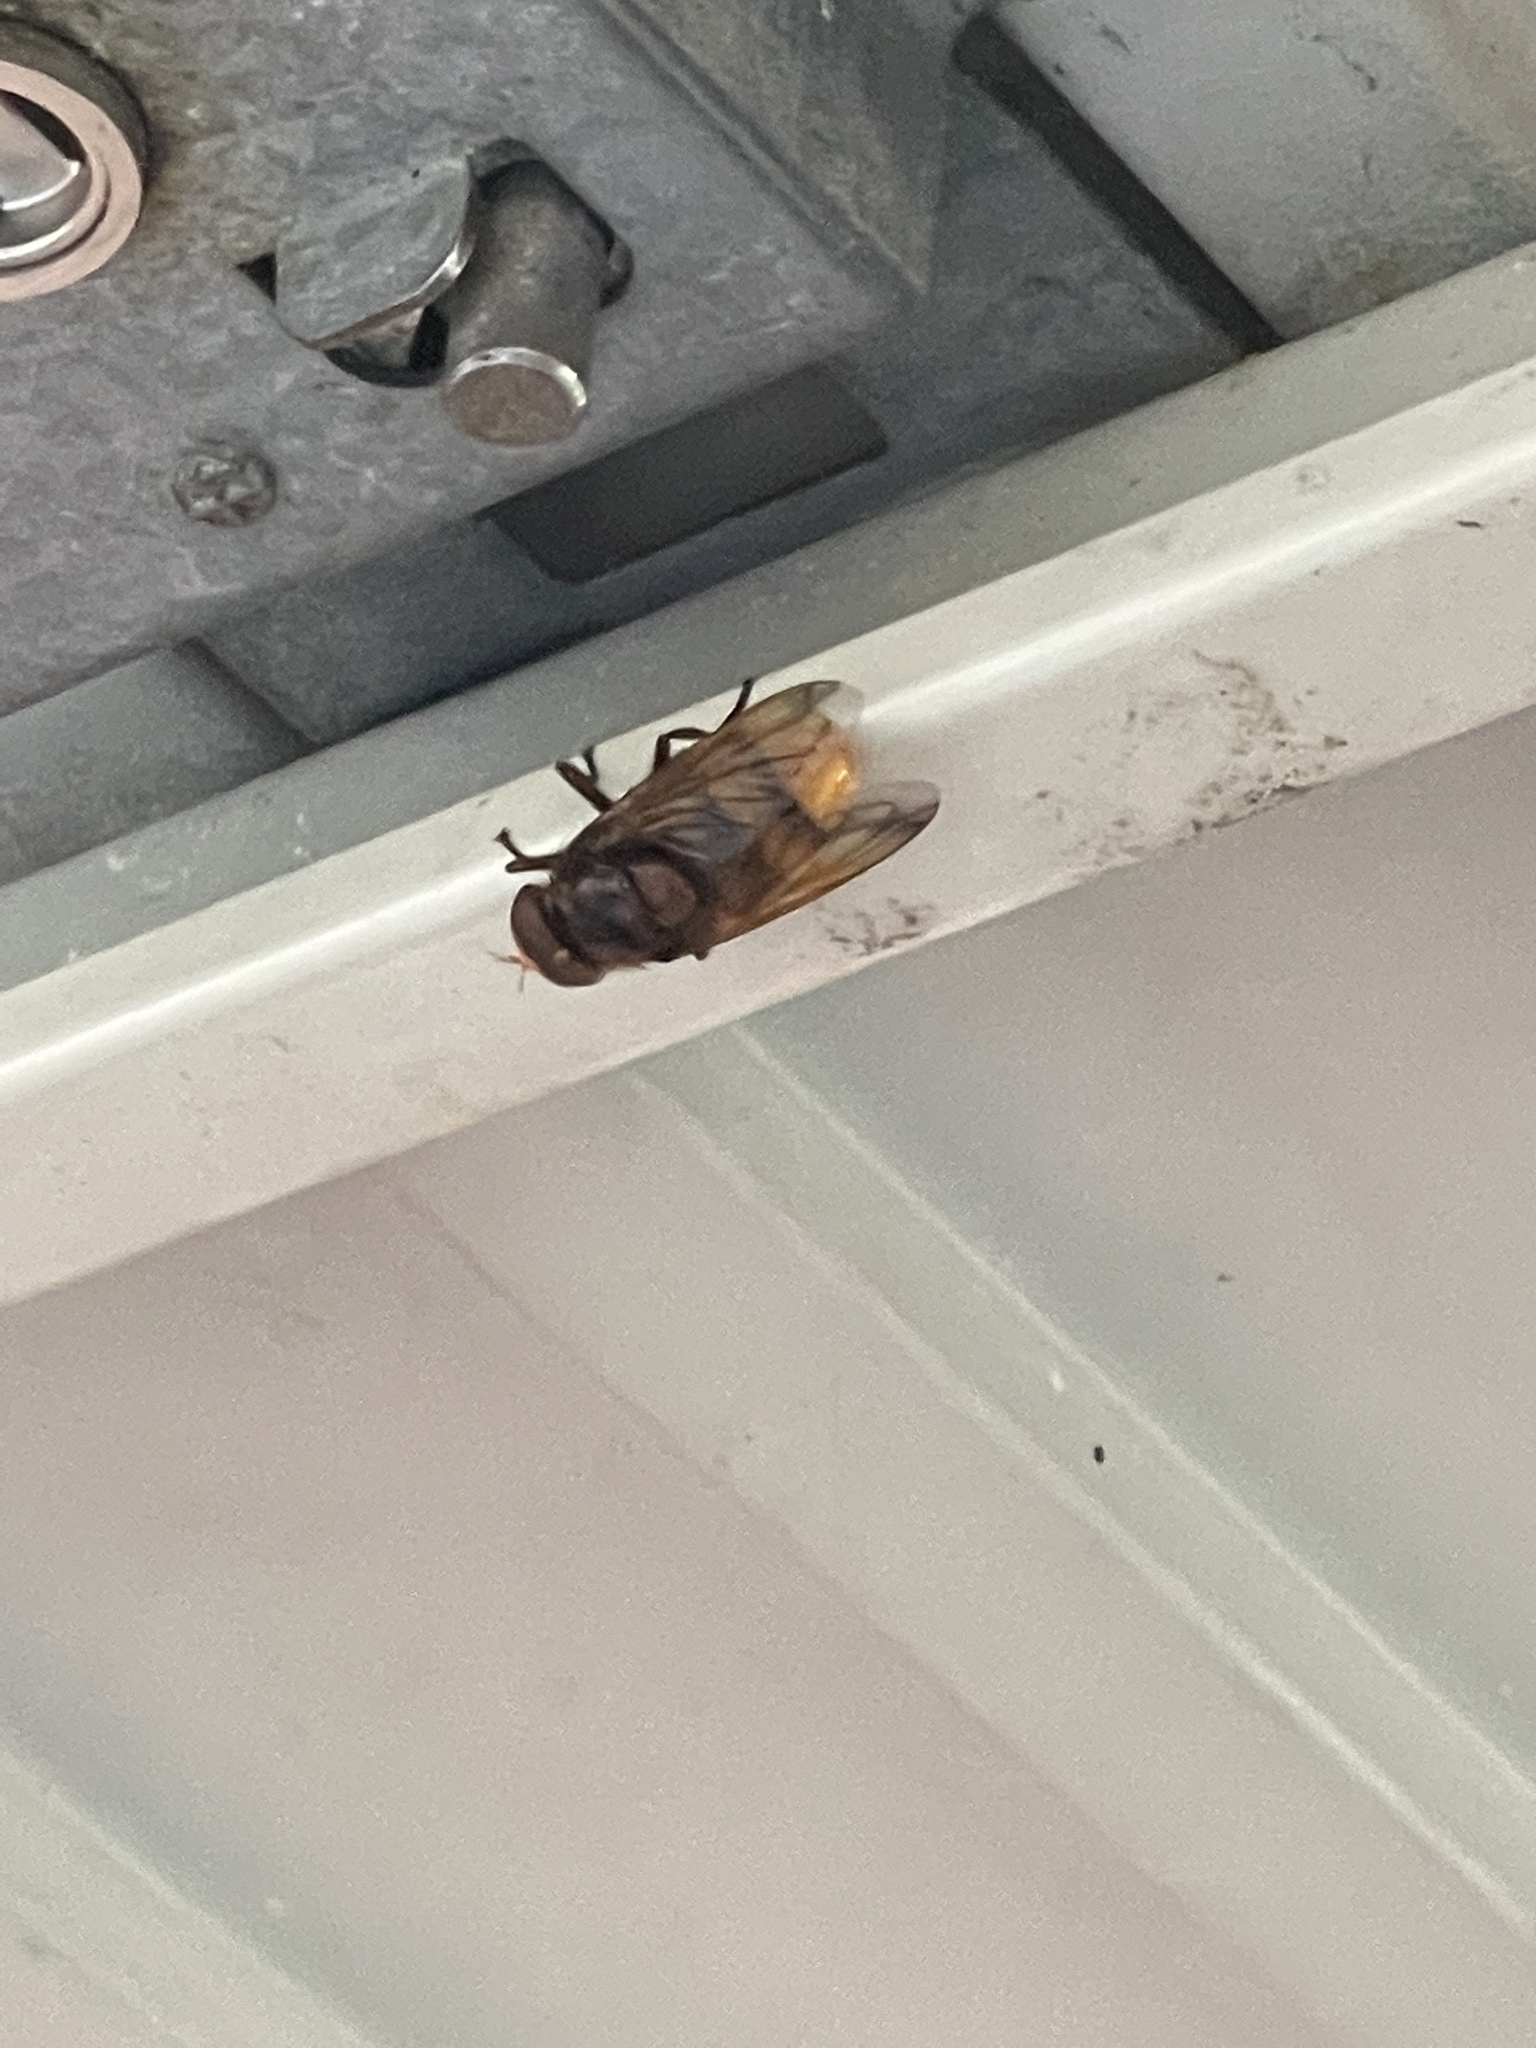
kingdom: Animalia
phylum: Arthropoda
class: Insecta
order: Diptera
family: Syrphidae
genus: Volucella
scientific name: Volucella zonaria
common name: Hornet hoverfly
